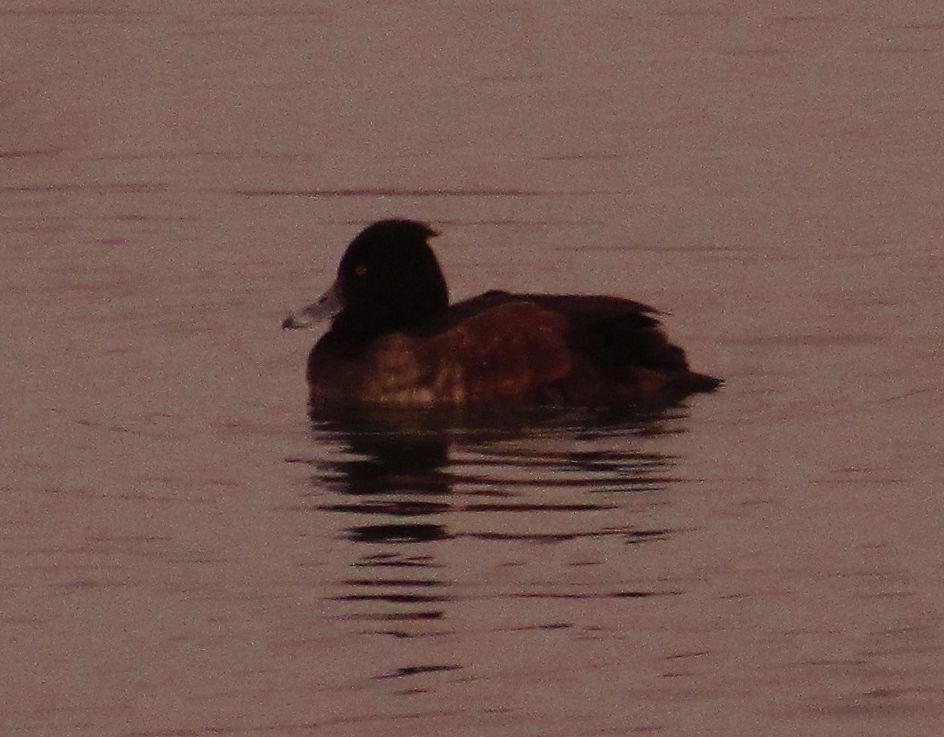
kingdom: Animalia
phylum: Chordata
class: Aves
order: Anseriformes
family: Anatidae
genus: Aythya
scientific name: Aythya fuligula
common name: Tufted duck
